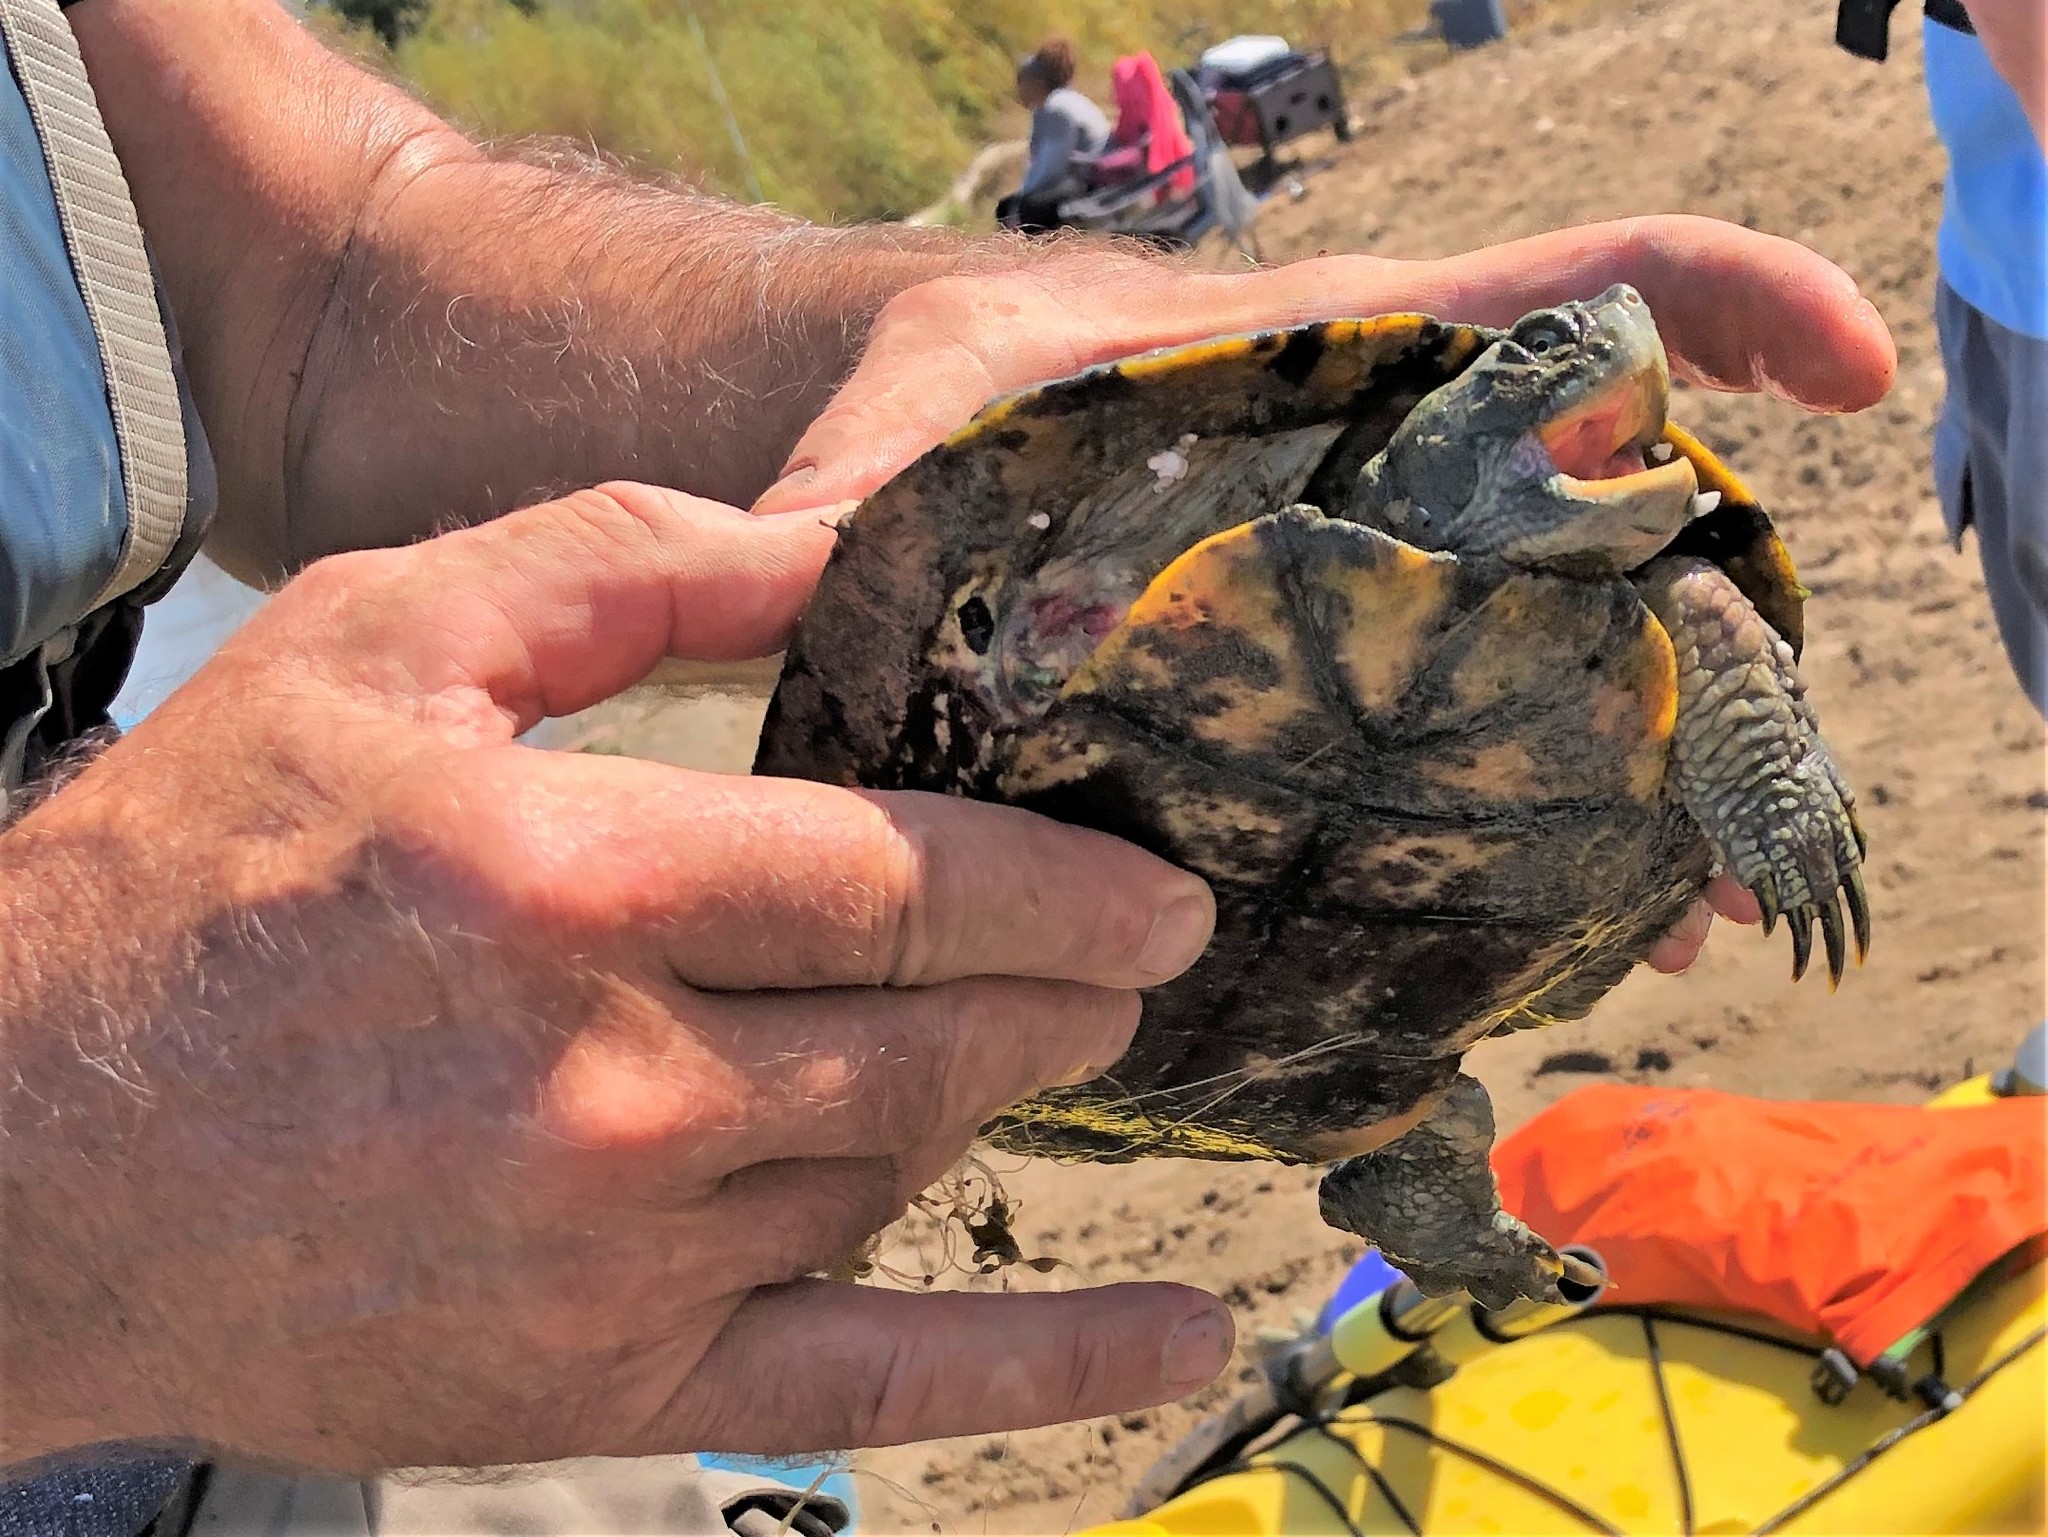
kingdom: Animalia
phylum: Chordata
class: Testudines
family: Emydidae
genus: Pseudemys
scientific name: Pseudemys concinna
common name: Eastern river cooter
